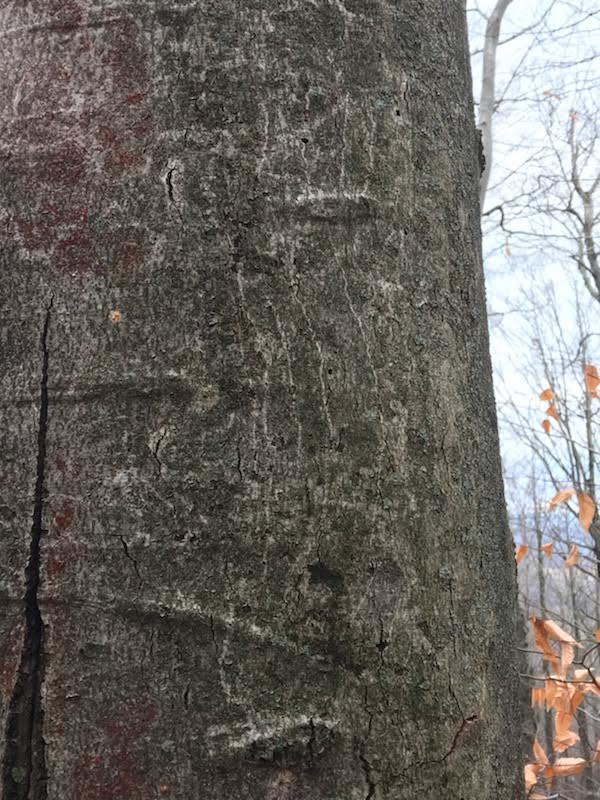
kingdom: Animalia
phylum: Chordata
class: Mammalia
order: Carnivora
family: Ursidae
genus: Ursus
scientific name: Ursus americanus
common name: American black bear
